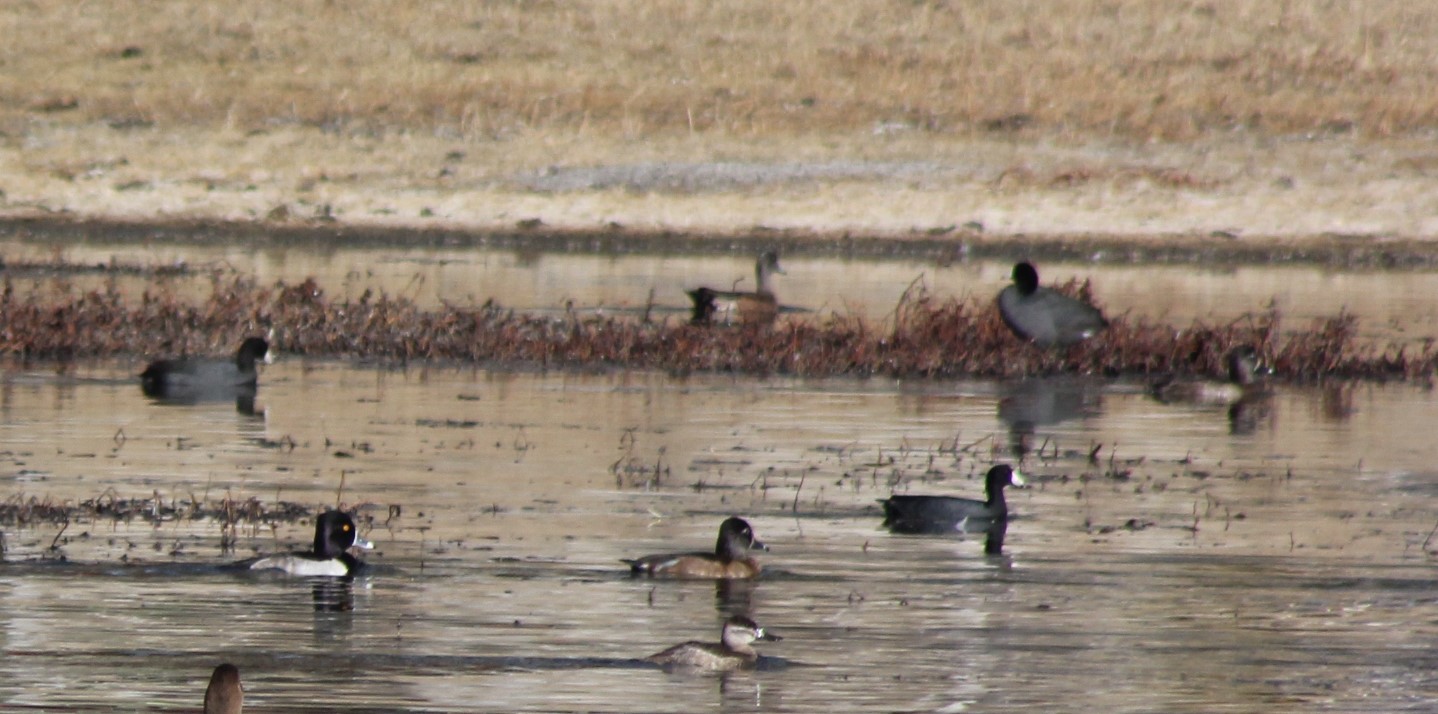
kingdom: Animalia
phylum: Chordata
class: Aves
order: Anseriformes
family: Anatidae
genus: Aythya
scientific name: Aythya collaris
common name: Ring-necked duck
